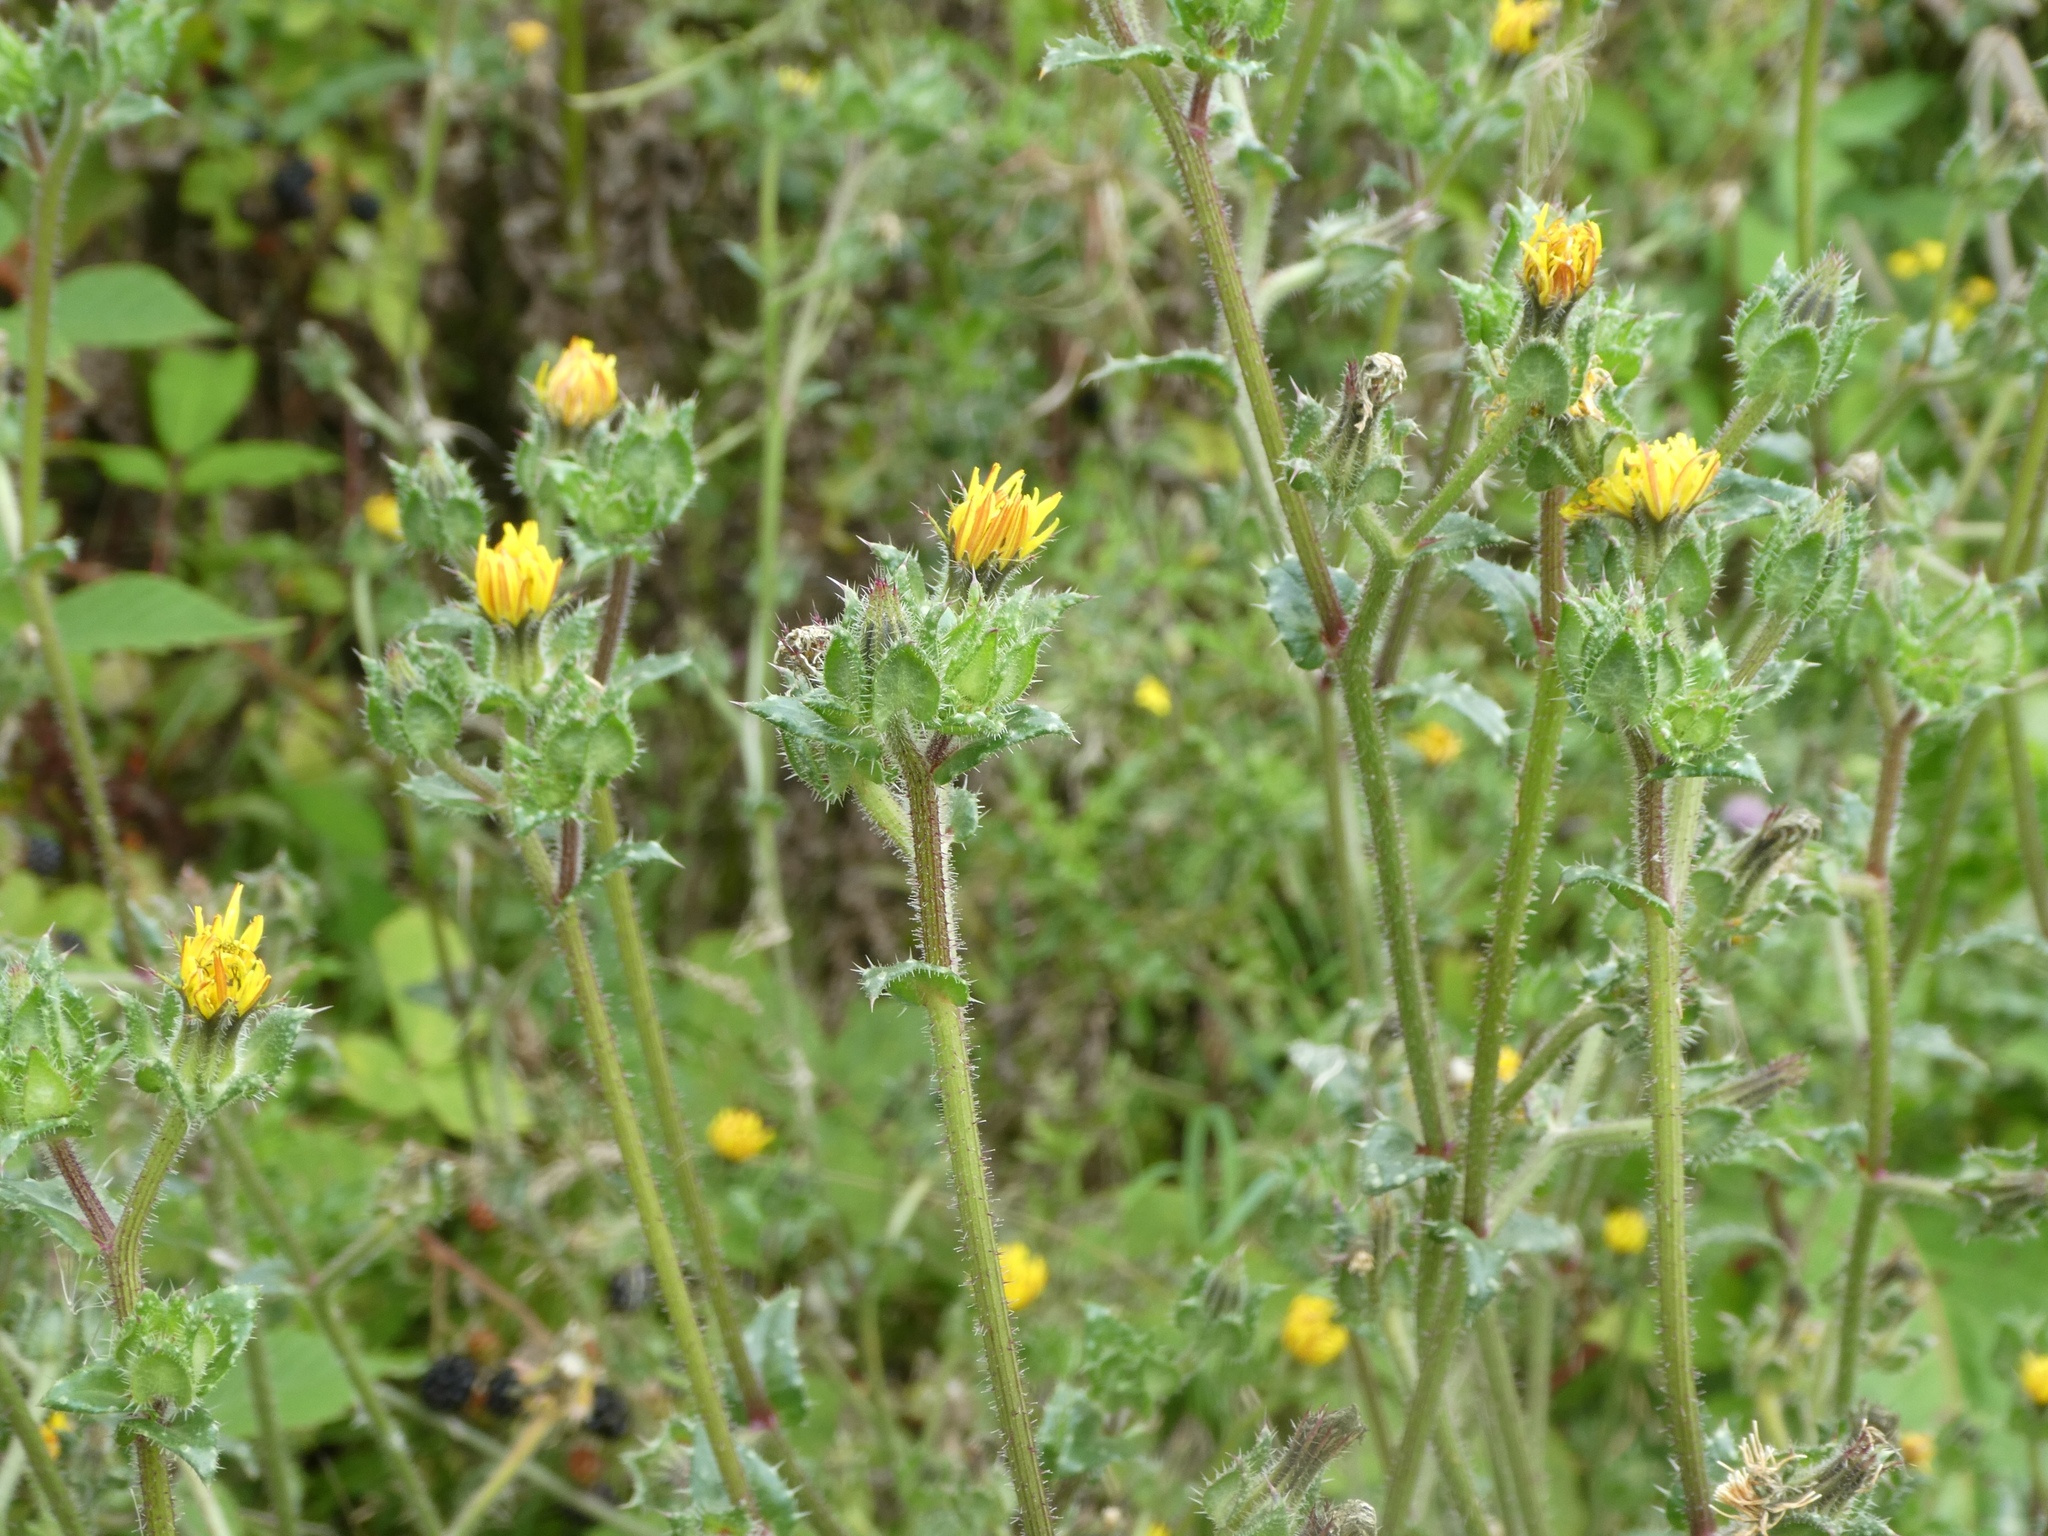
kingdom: Plantae
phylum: Tracheophyta
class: Magnoliopsida
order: Asterales
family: Asteraceae
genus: Helminthotheca
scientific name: Helminthotheca echioides
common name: Ox-tongue
